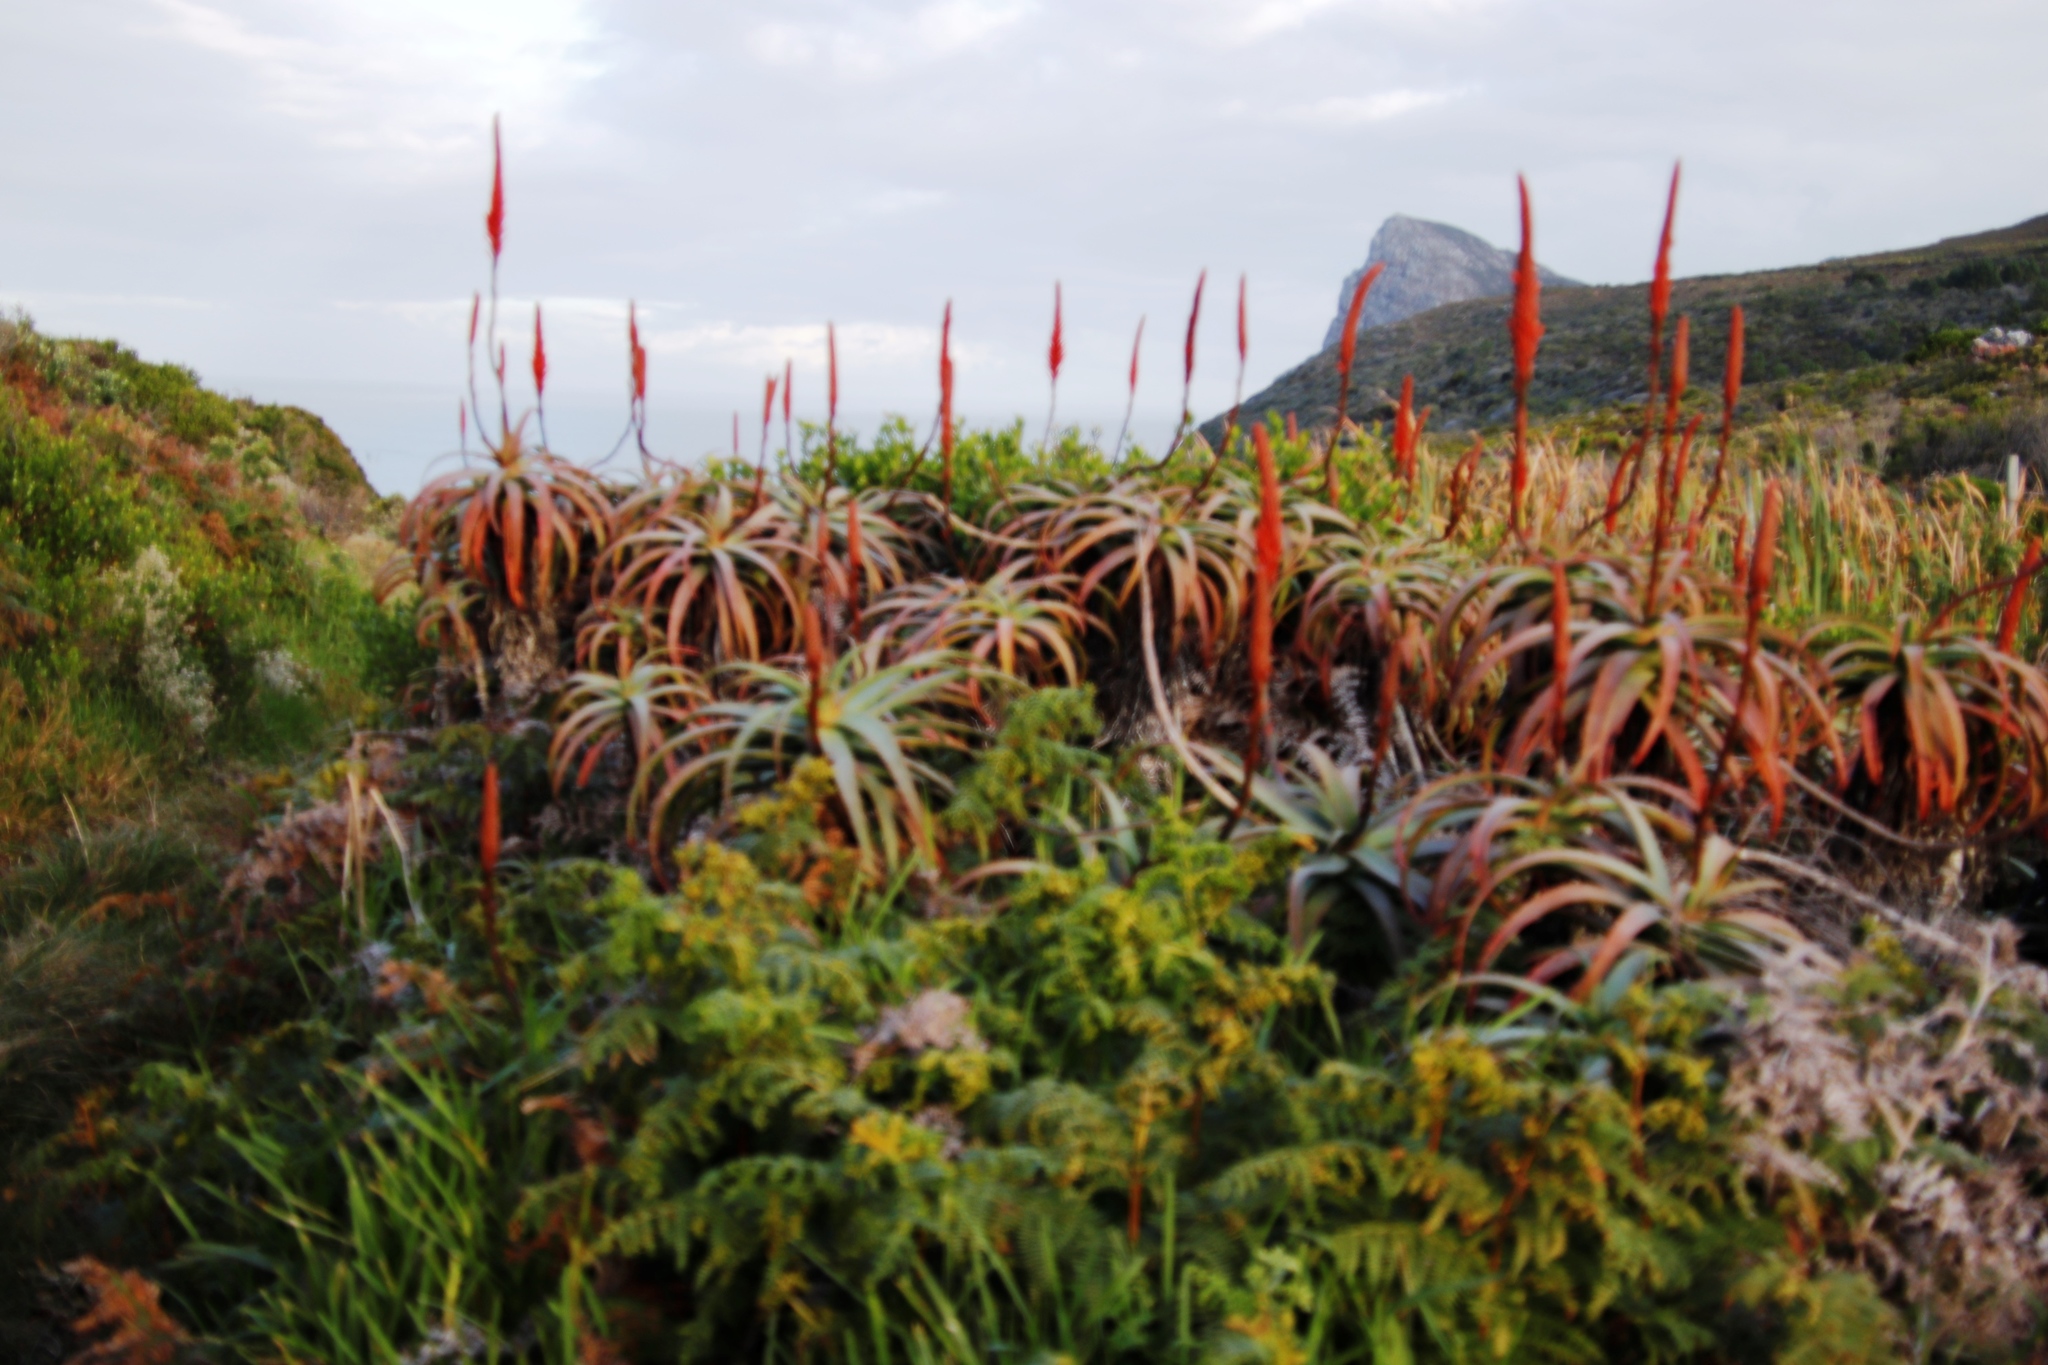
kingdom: Plantae
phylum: Tracheophyta
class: Liliopsida
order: Asparagales
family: Asphodelaceae
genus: Aloe
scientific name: Aloe arborescens
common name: Candelabra aloe
